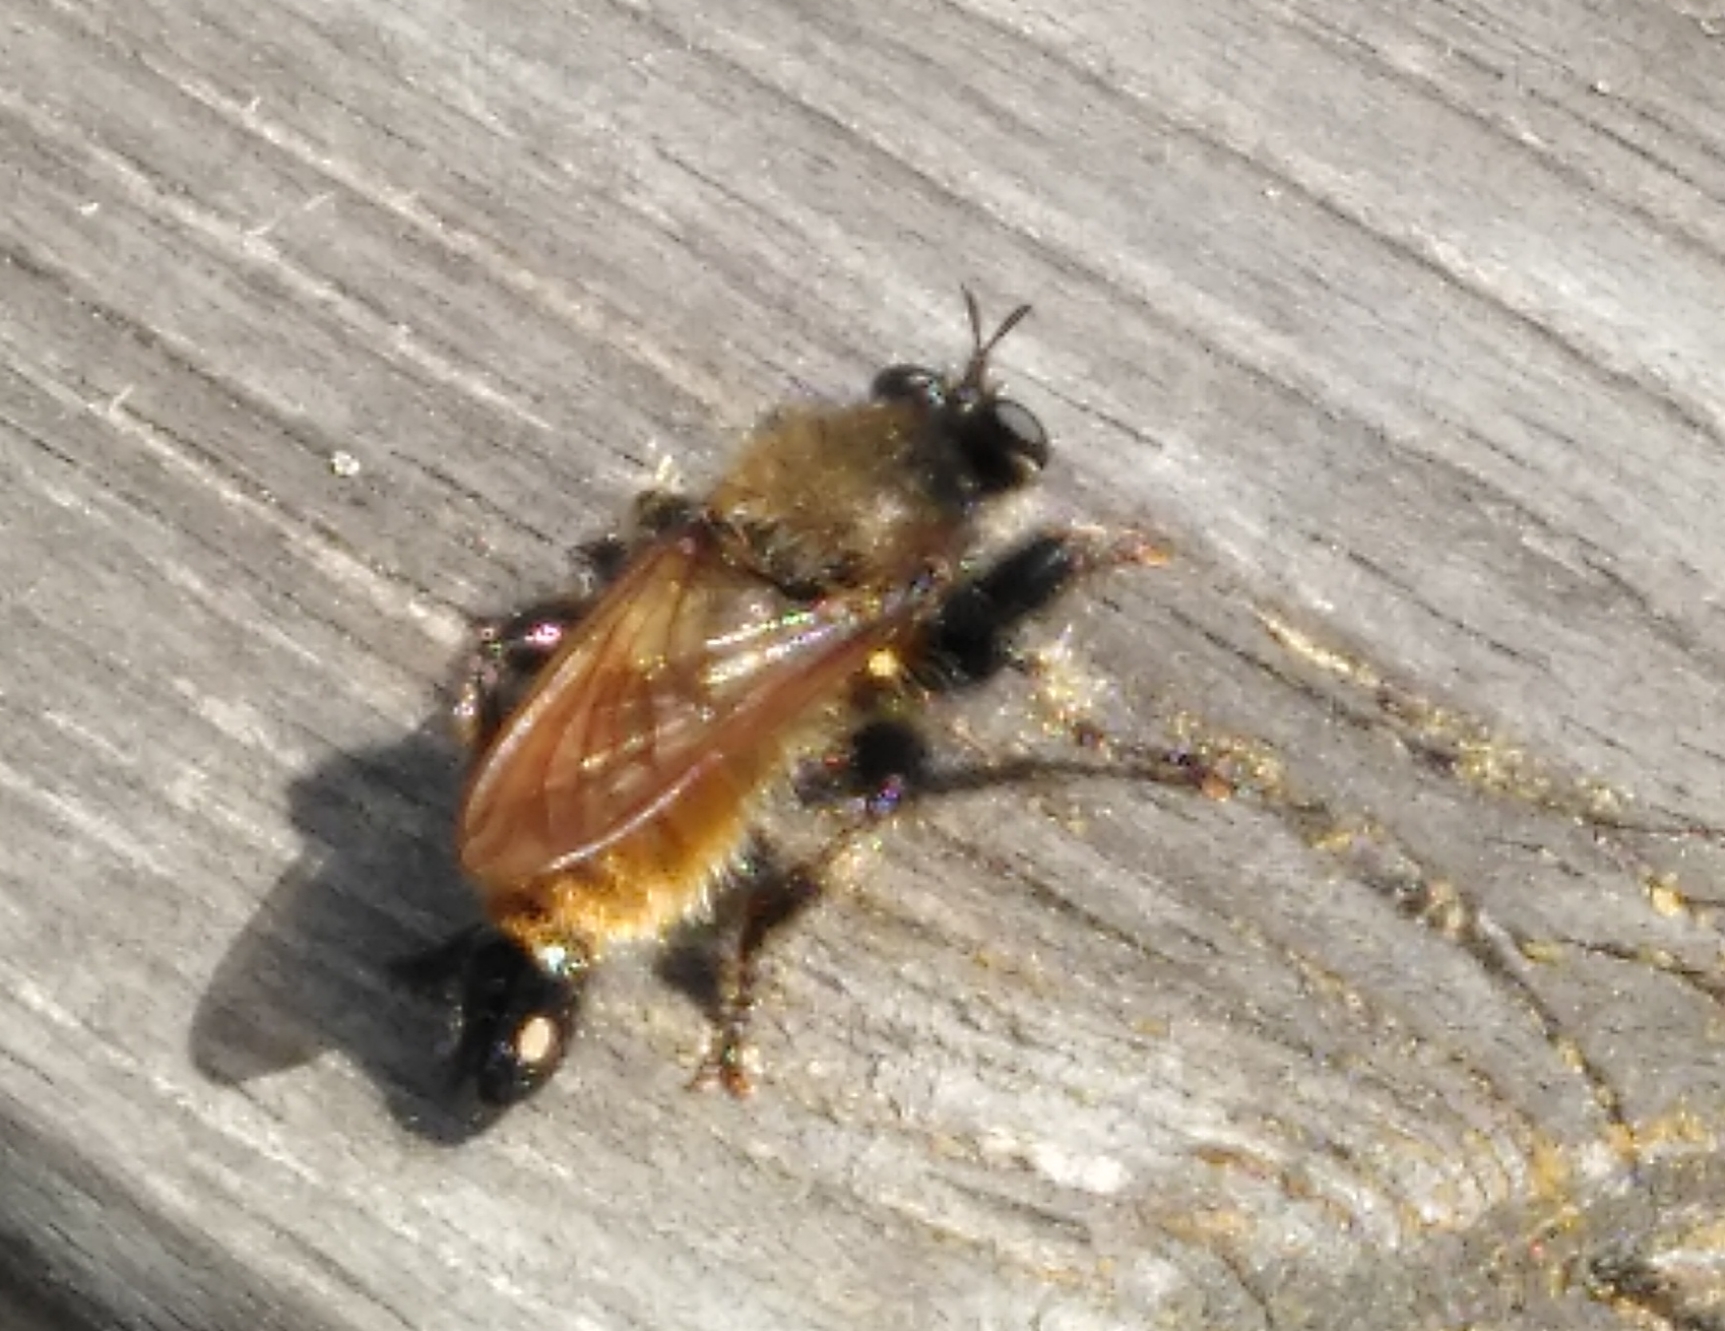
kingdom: Animalia
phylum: Arthropoda
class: Insecta
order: Diptera
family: Asilidae
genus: Laphria
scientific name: Laphria flava
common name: Bumblebee robberfly
